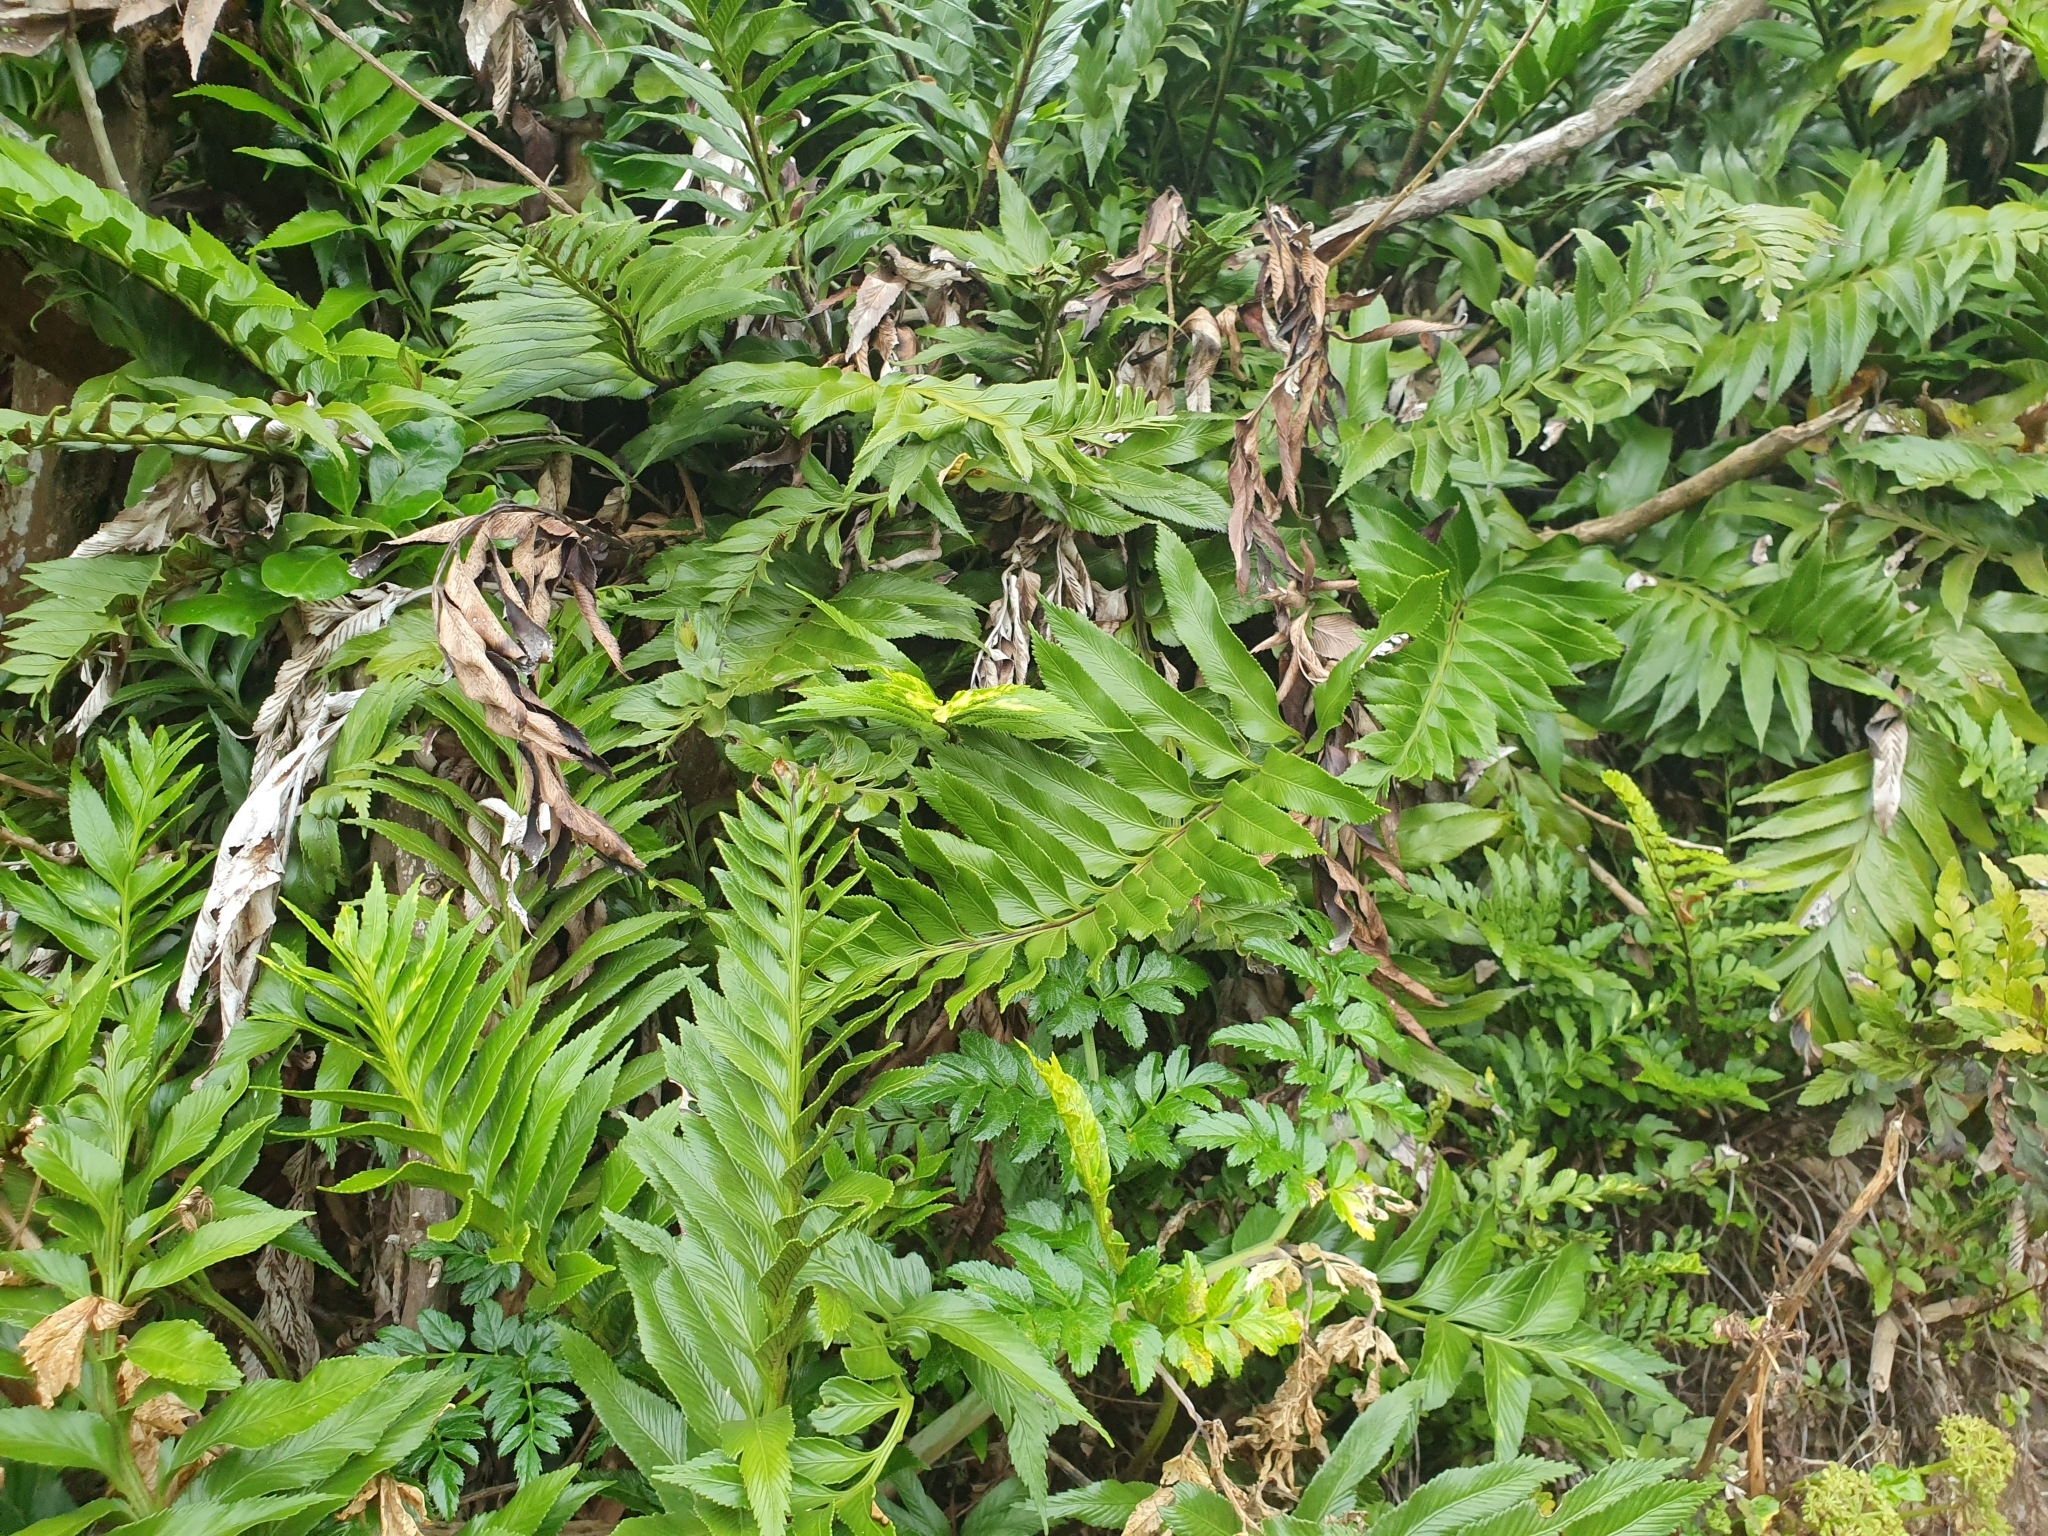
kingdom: Plantae
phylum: Tracheophyta
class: Polypodiopsida
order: Polypodiales
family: Aspleniaceae
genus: Asplenium
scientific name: Asplenium obtusatum
